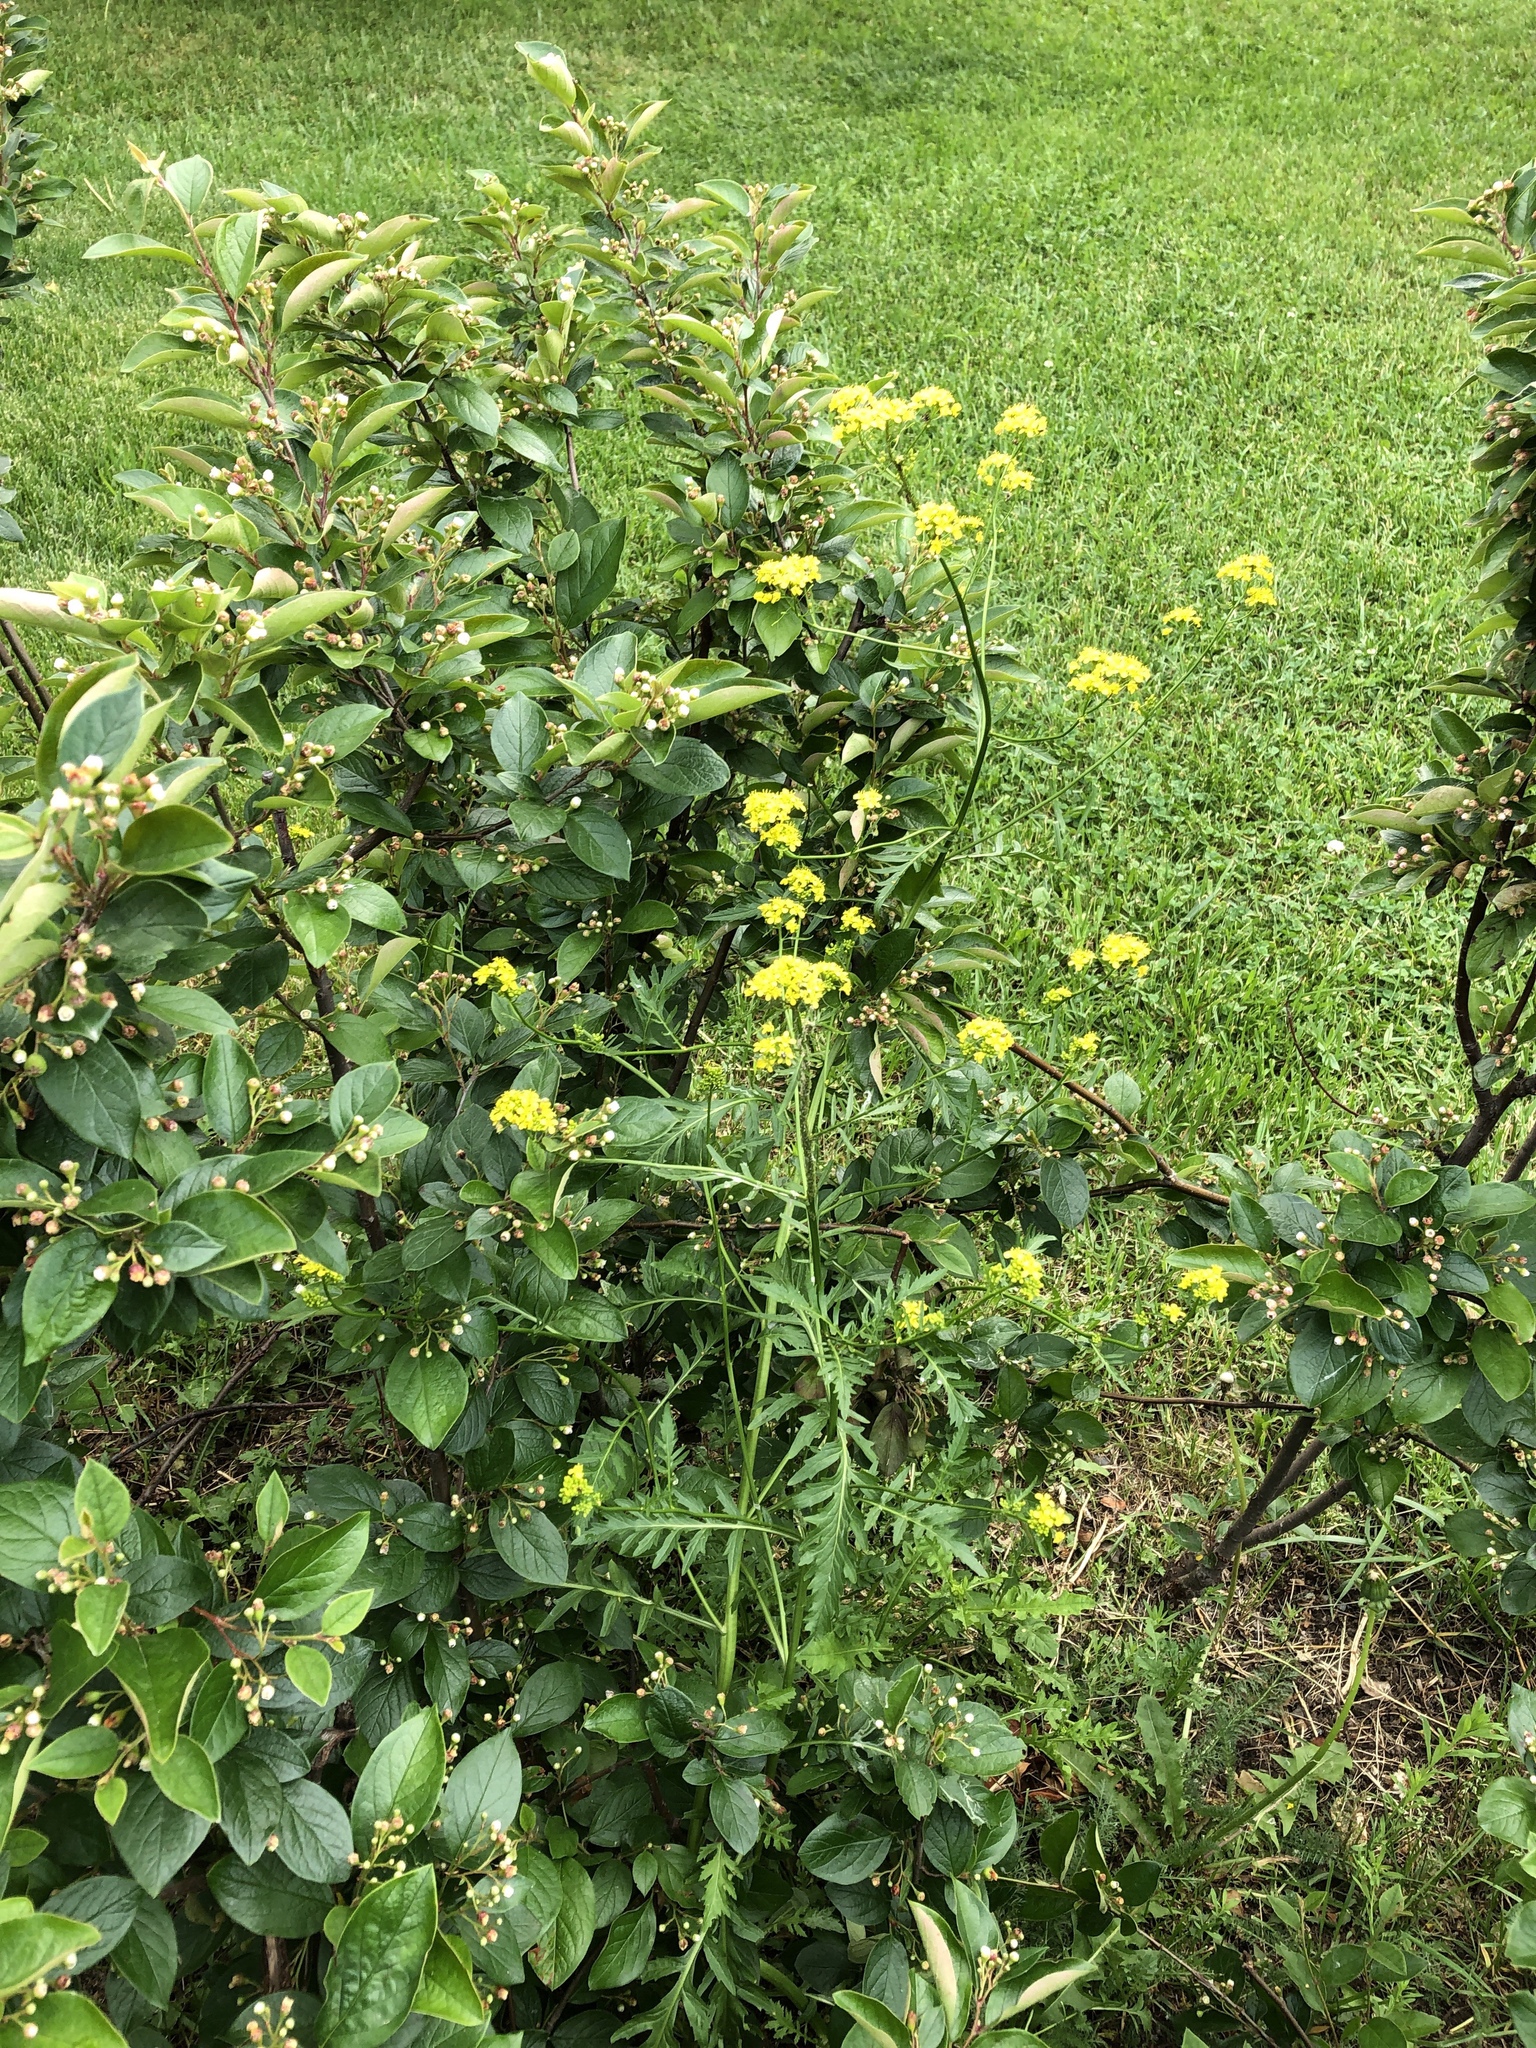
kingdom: Plantae
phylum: Tracheophyta
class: Magnoliopsida
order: Brassicales
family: Brassicaceae
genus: Rorippa
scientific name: Rorippa sylvestris
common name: Creeping yellowcress
